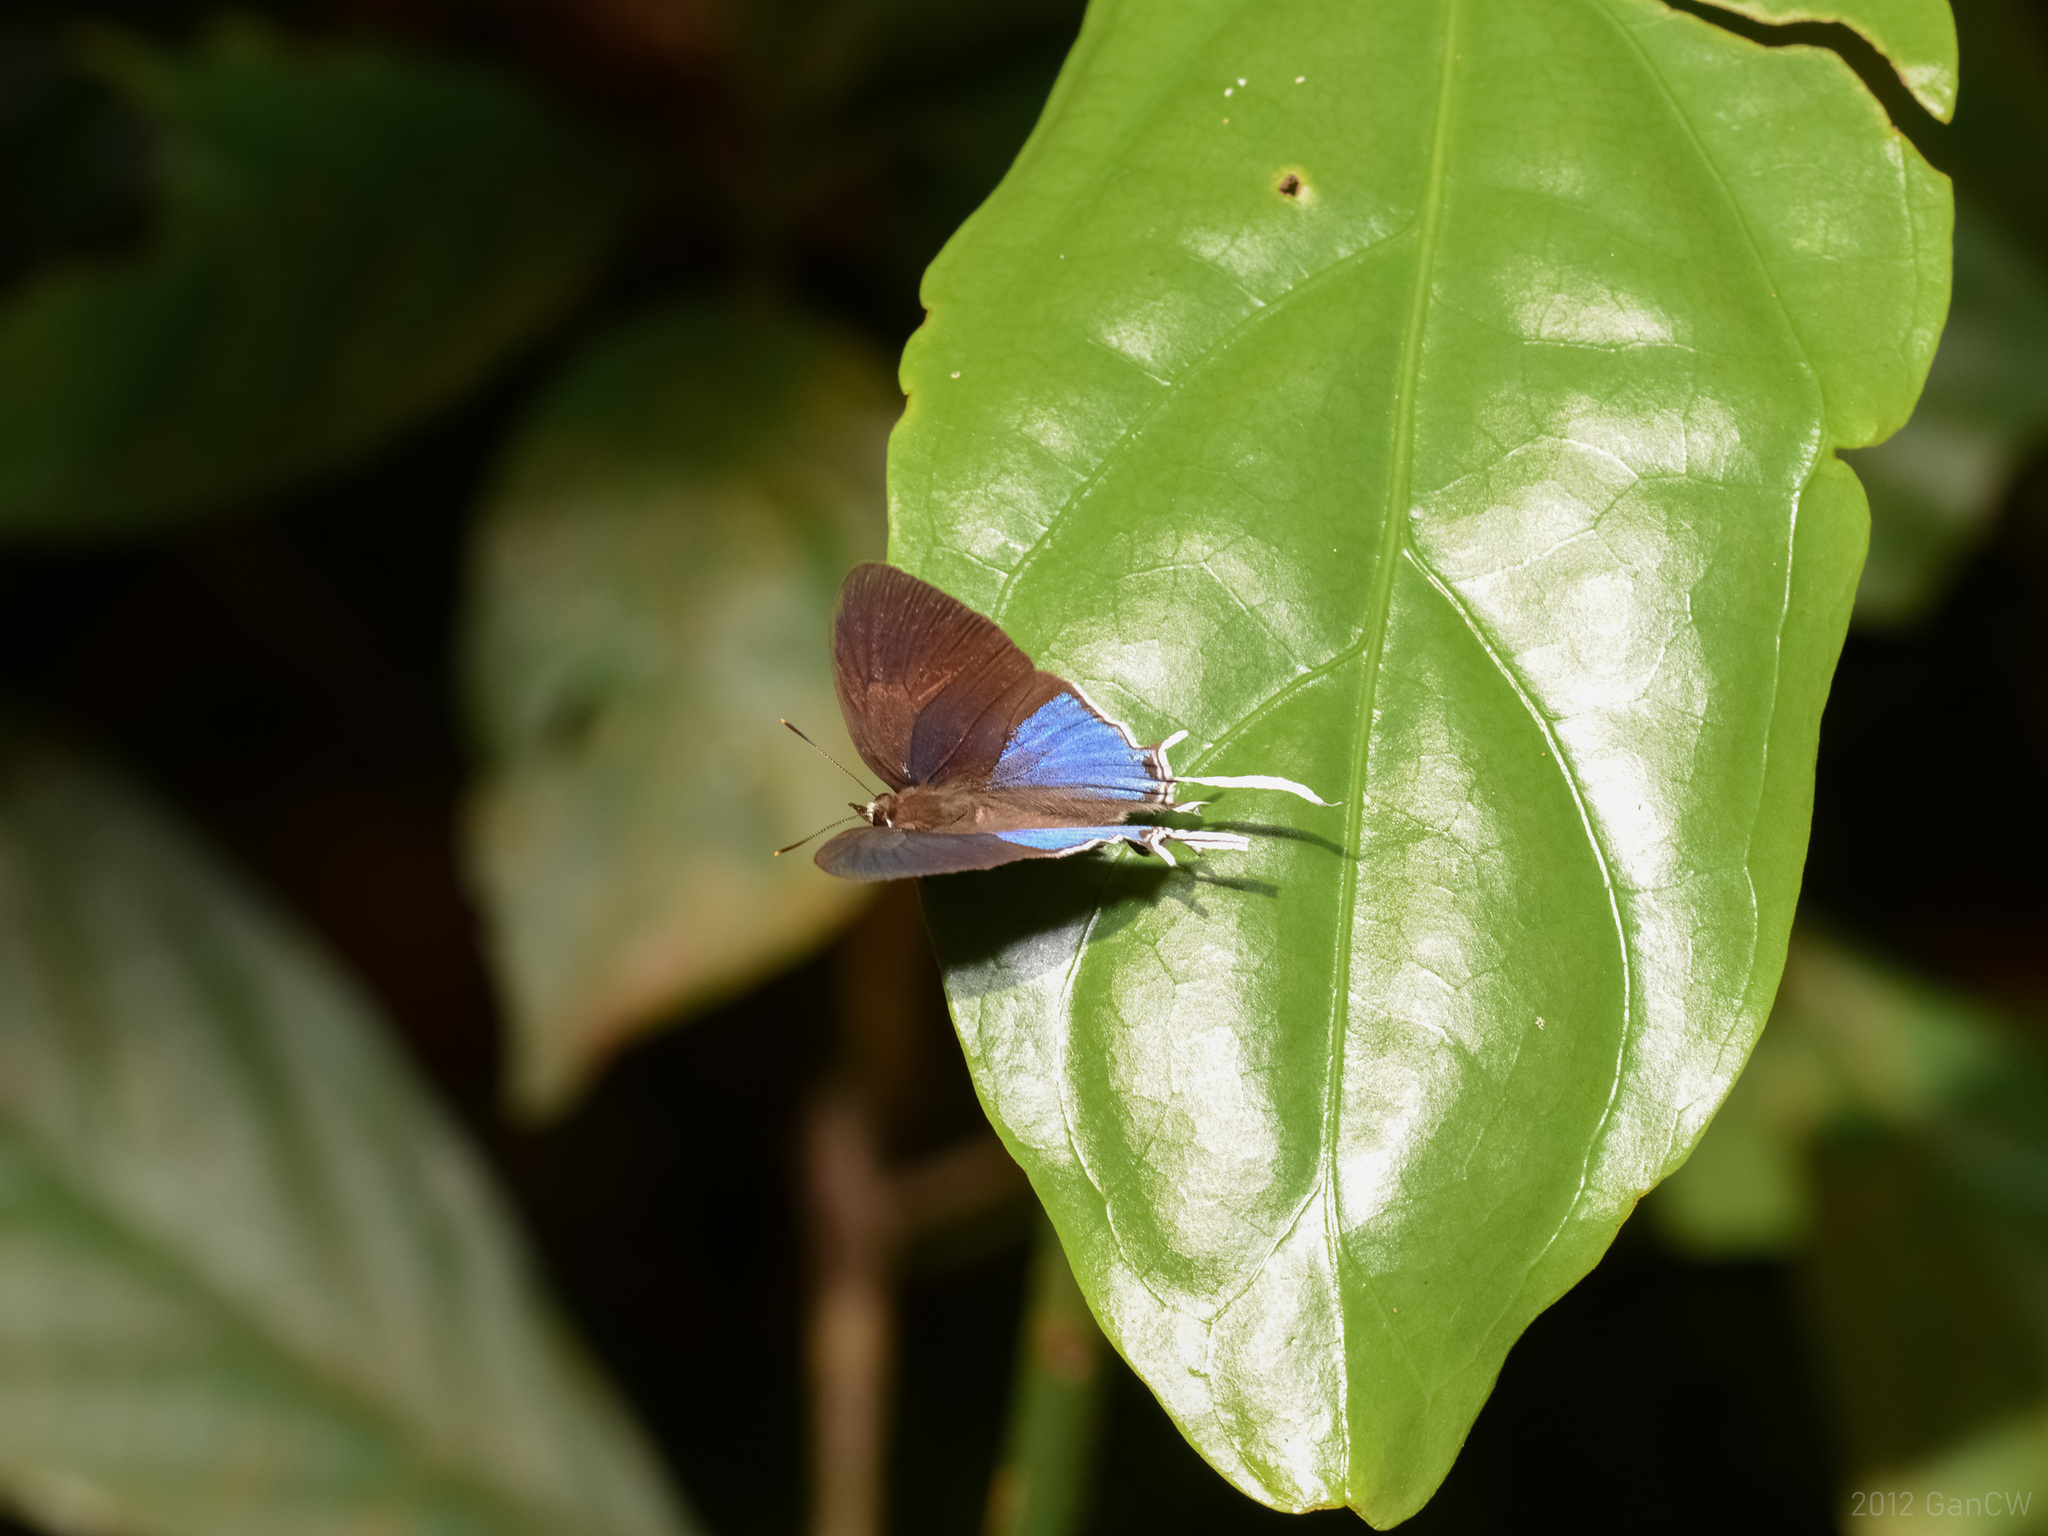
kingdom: Animalia
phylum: Arthropoda
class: Insecta
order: Lepidoptera
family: Lycaenidae
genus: Drupadia
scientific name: Drupadia ravindra
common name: Common posy
